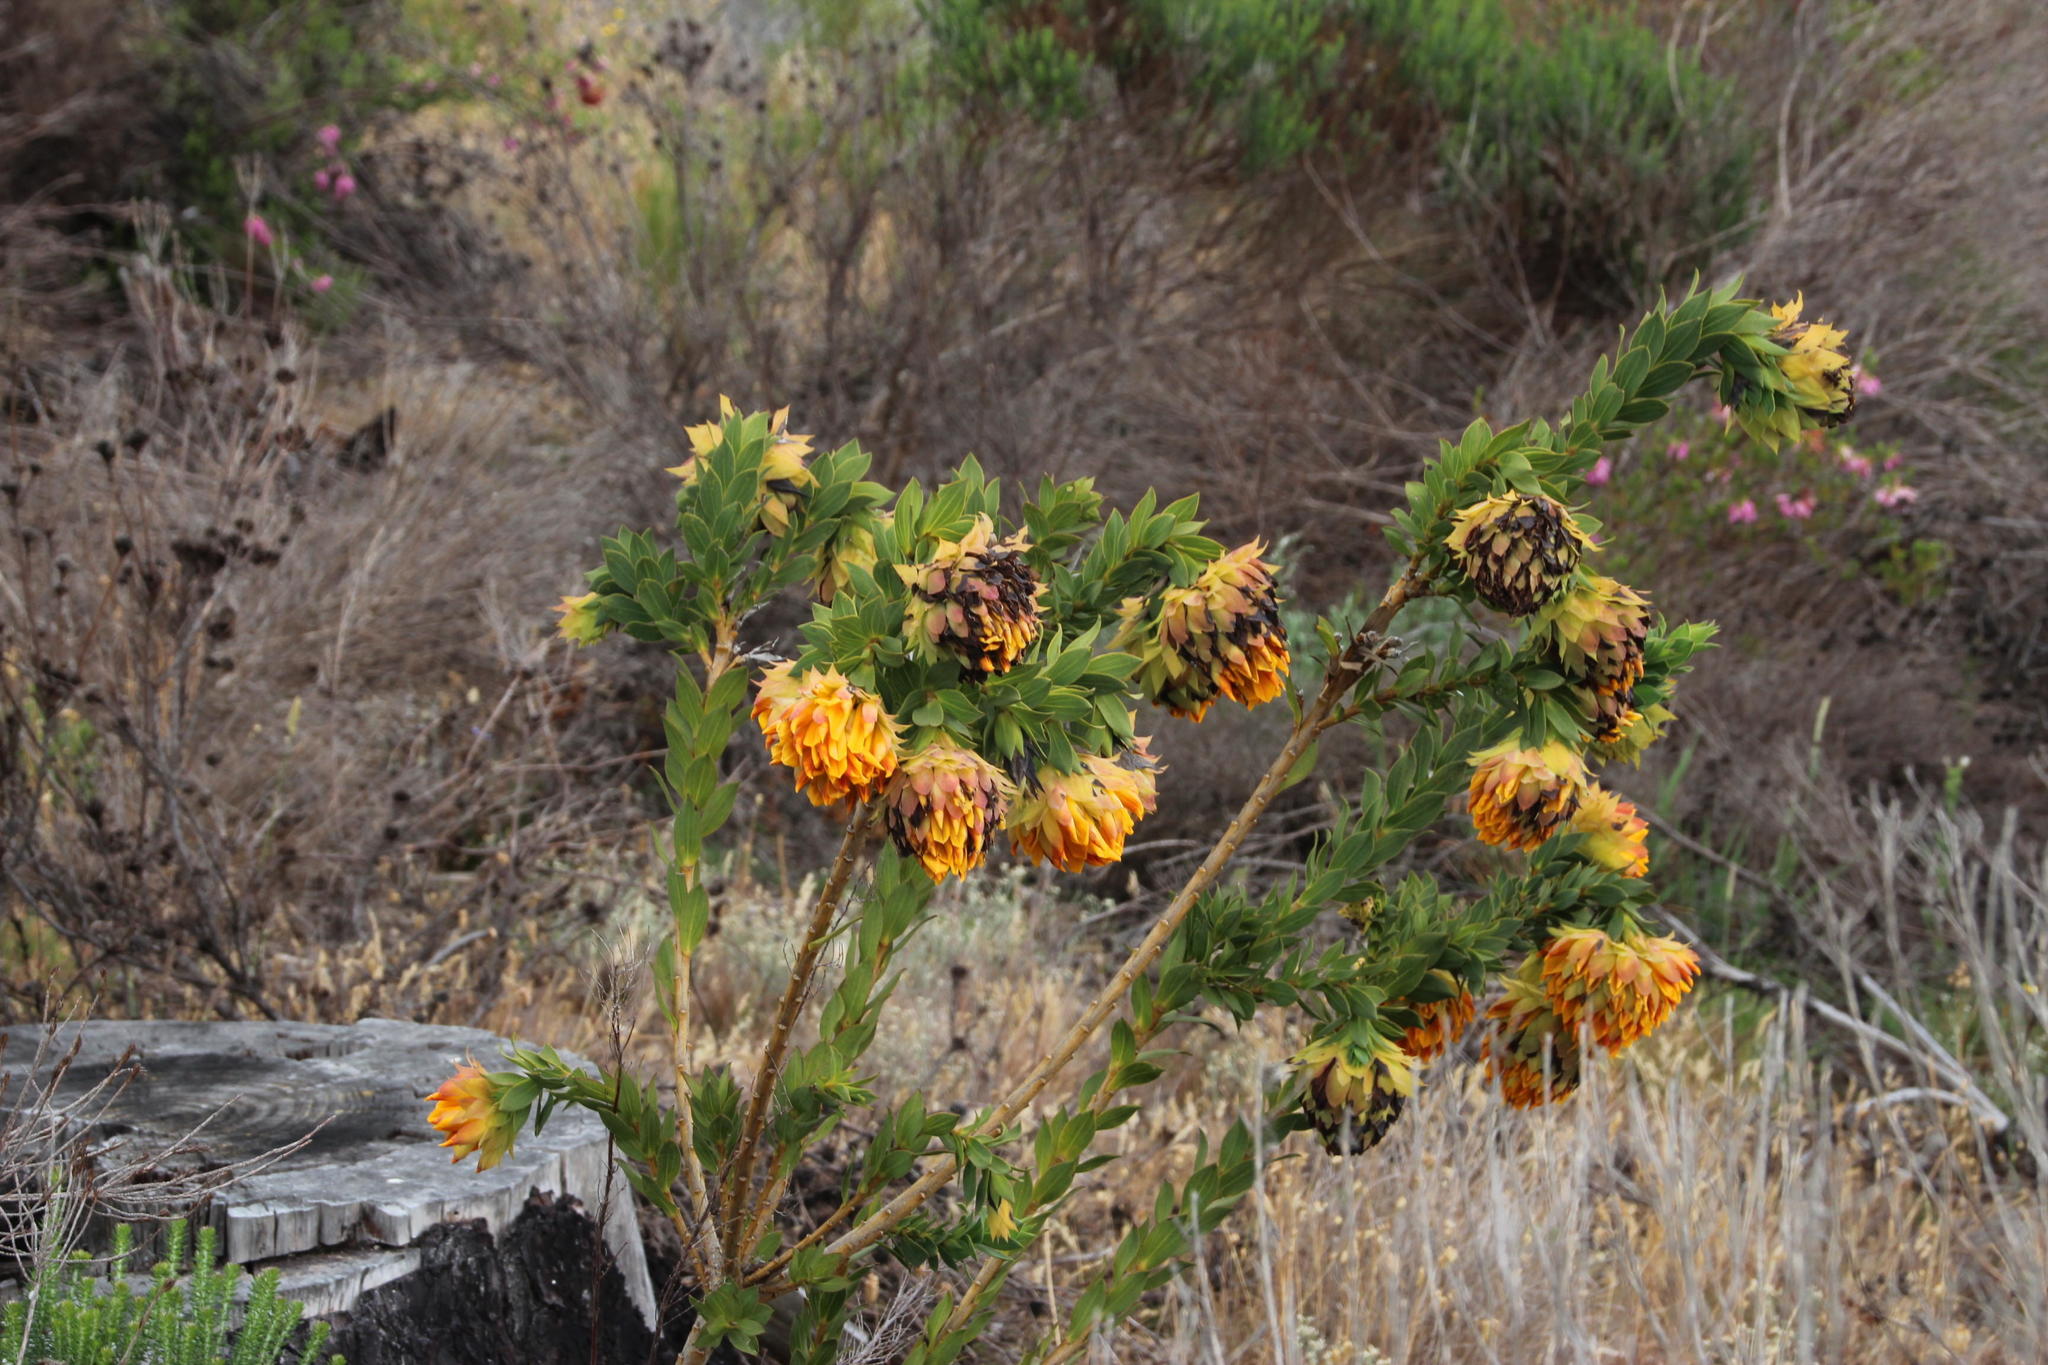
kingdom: Plantae
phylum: Tracheophyta
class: Magnoliopsida
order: Fabales
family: Fabaceae
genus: Liparia
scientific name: Liparia splendens
